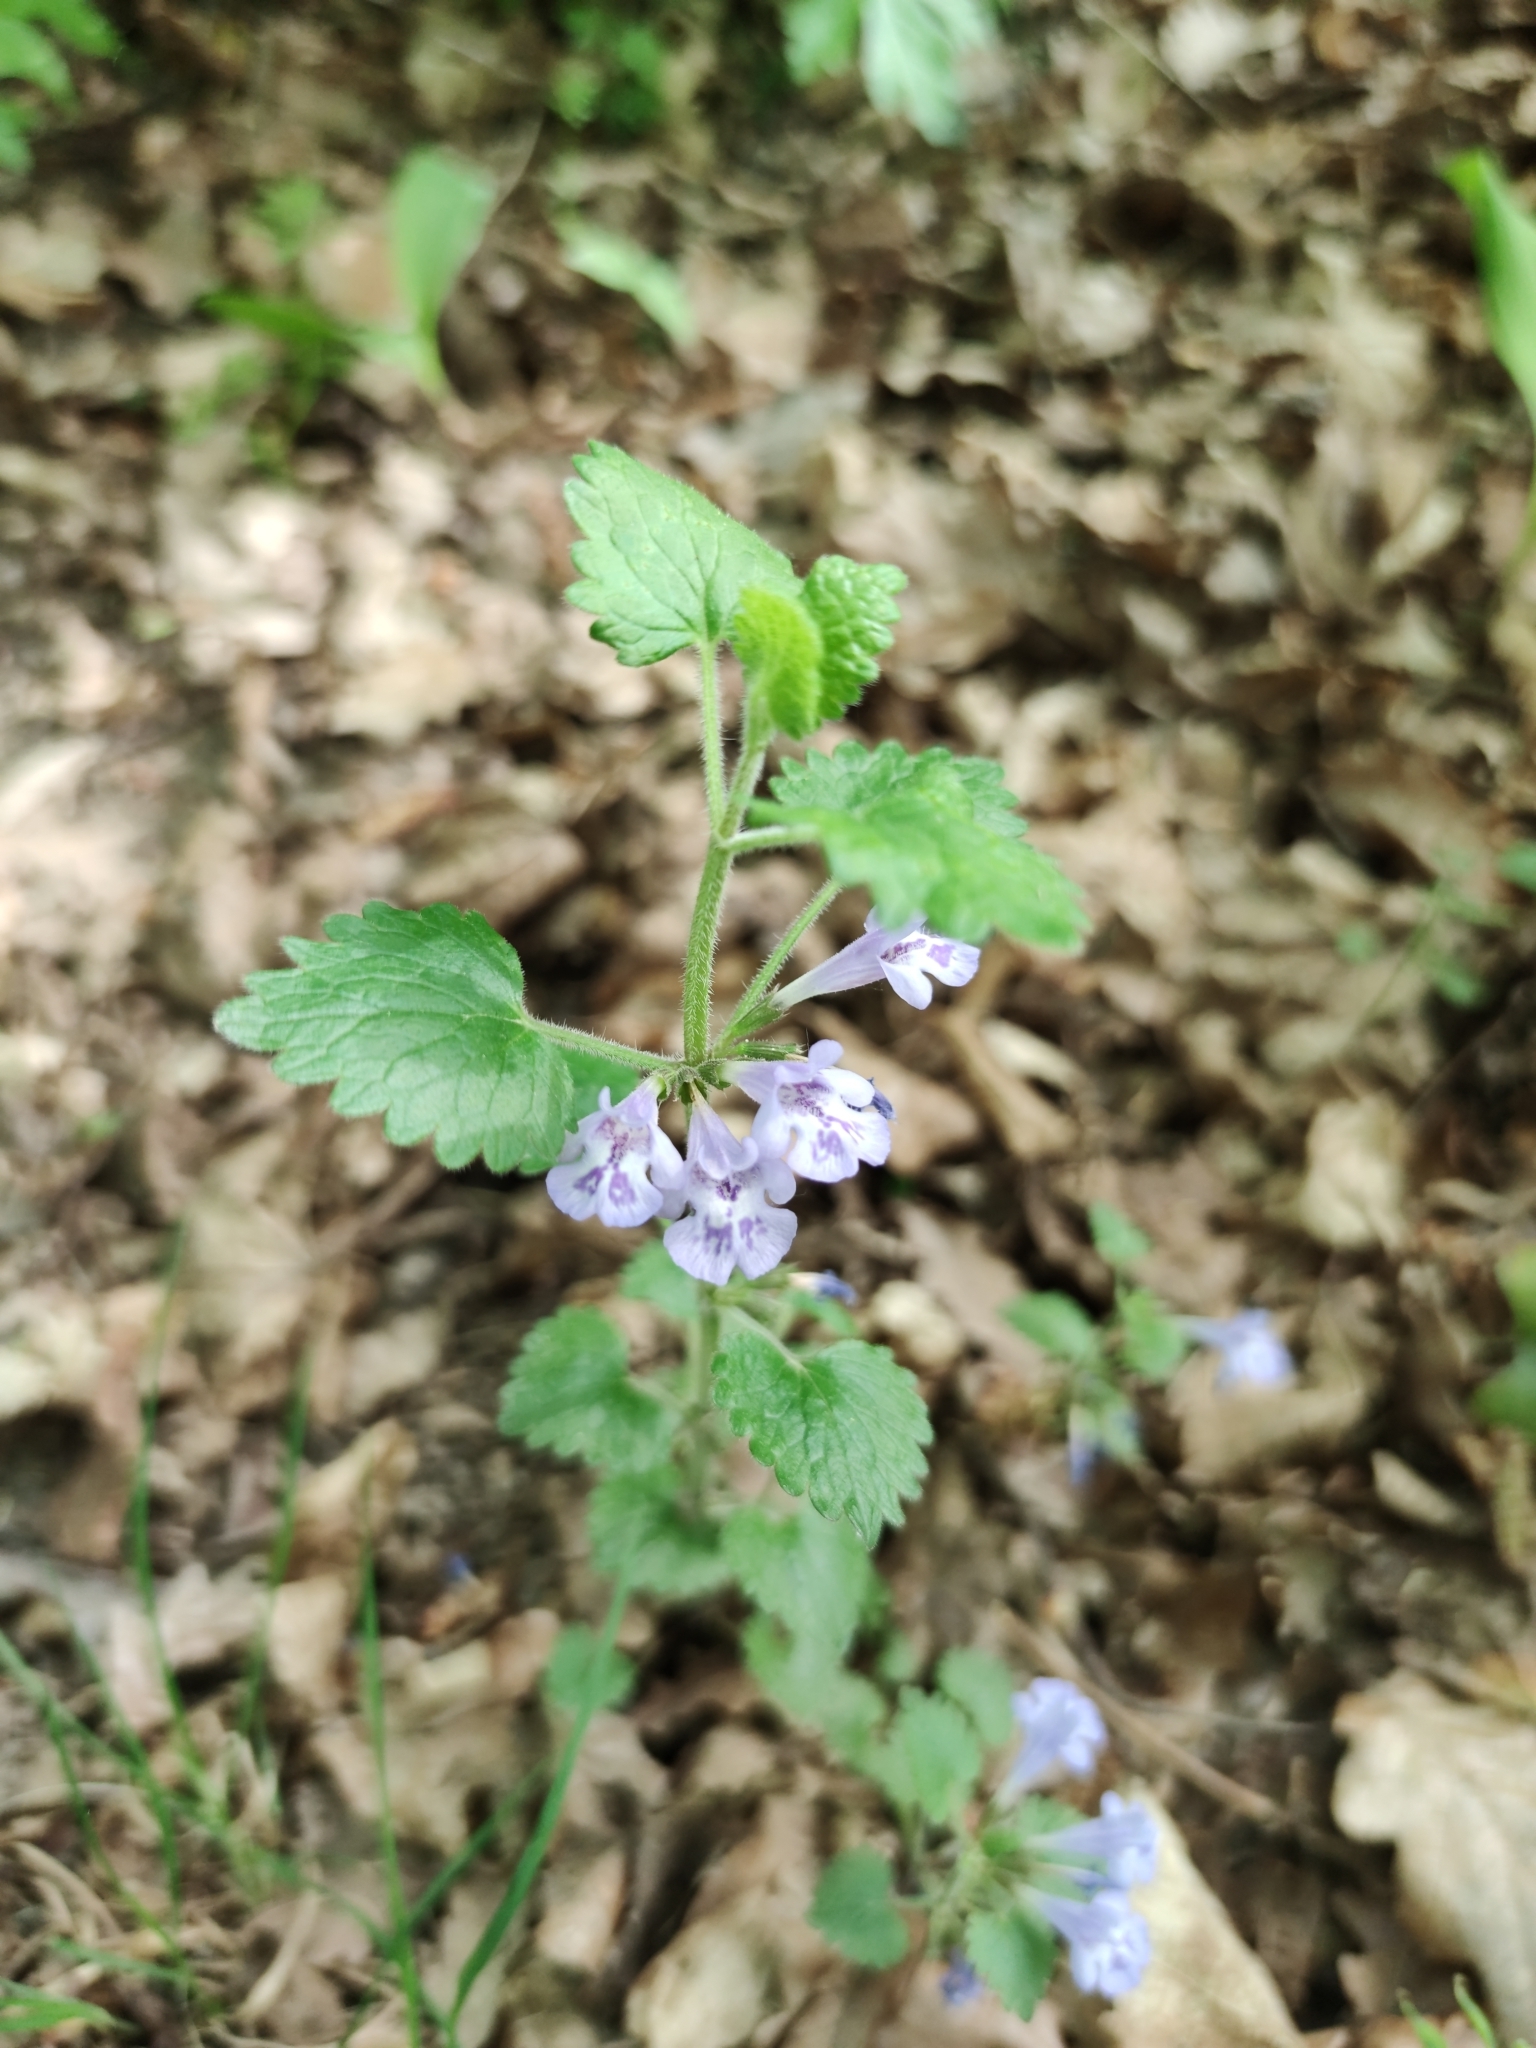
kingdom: Plantae
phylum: Tracheophyta
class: Magnoliopsida
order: Lamiales
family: Lamiaceae
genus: Glechoma
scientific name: Glechoma hirsuta
